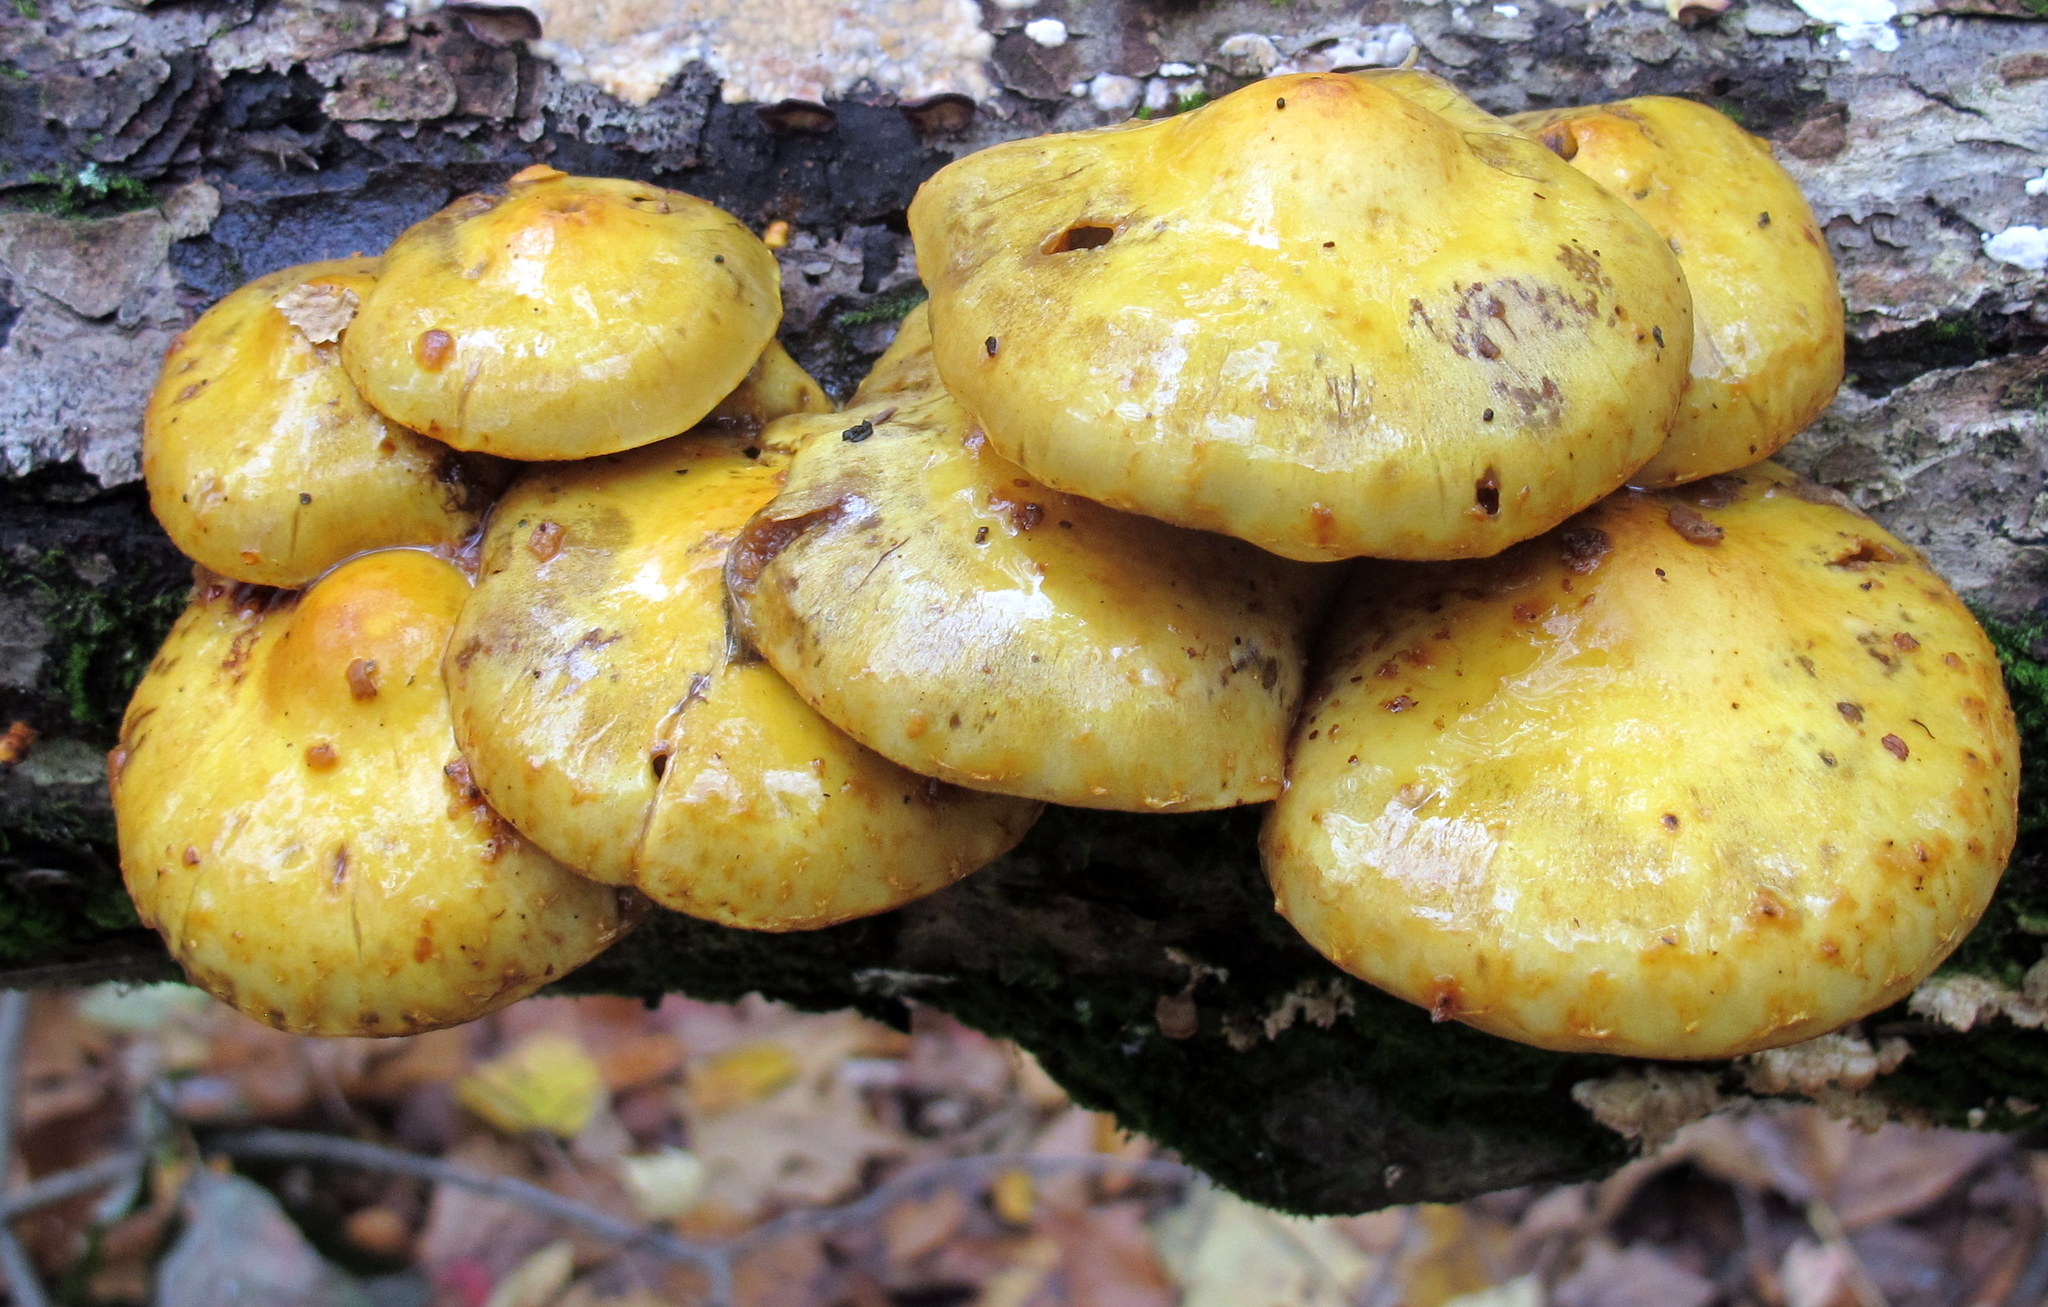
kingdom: Fungi
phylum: Basidiomycota
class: Agaricomycetes
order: Agaricales
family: Strophariaceae
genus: Pholiota
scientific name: Pholiota aurivella
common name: Golden scalycap
